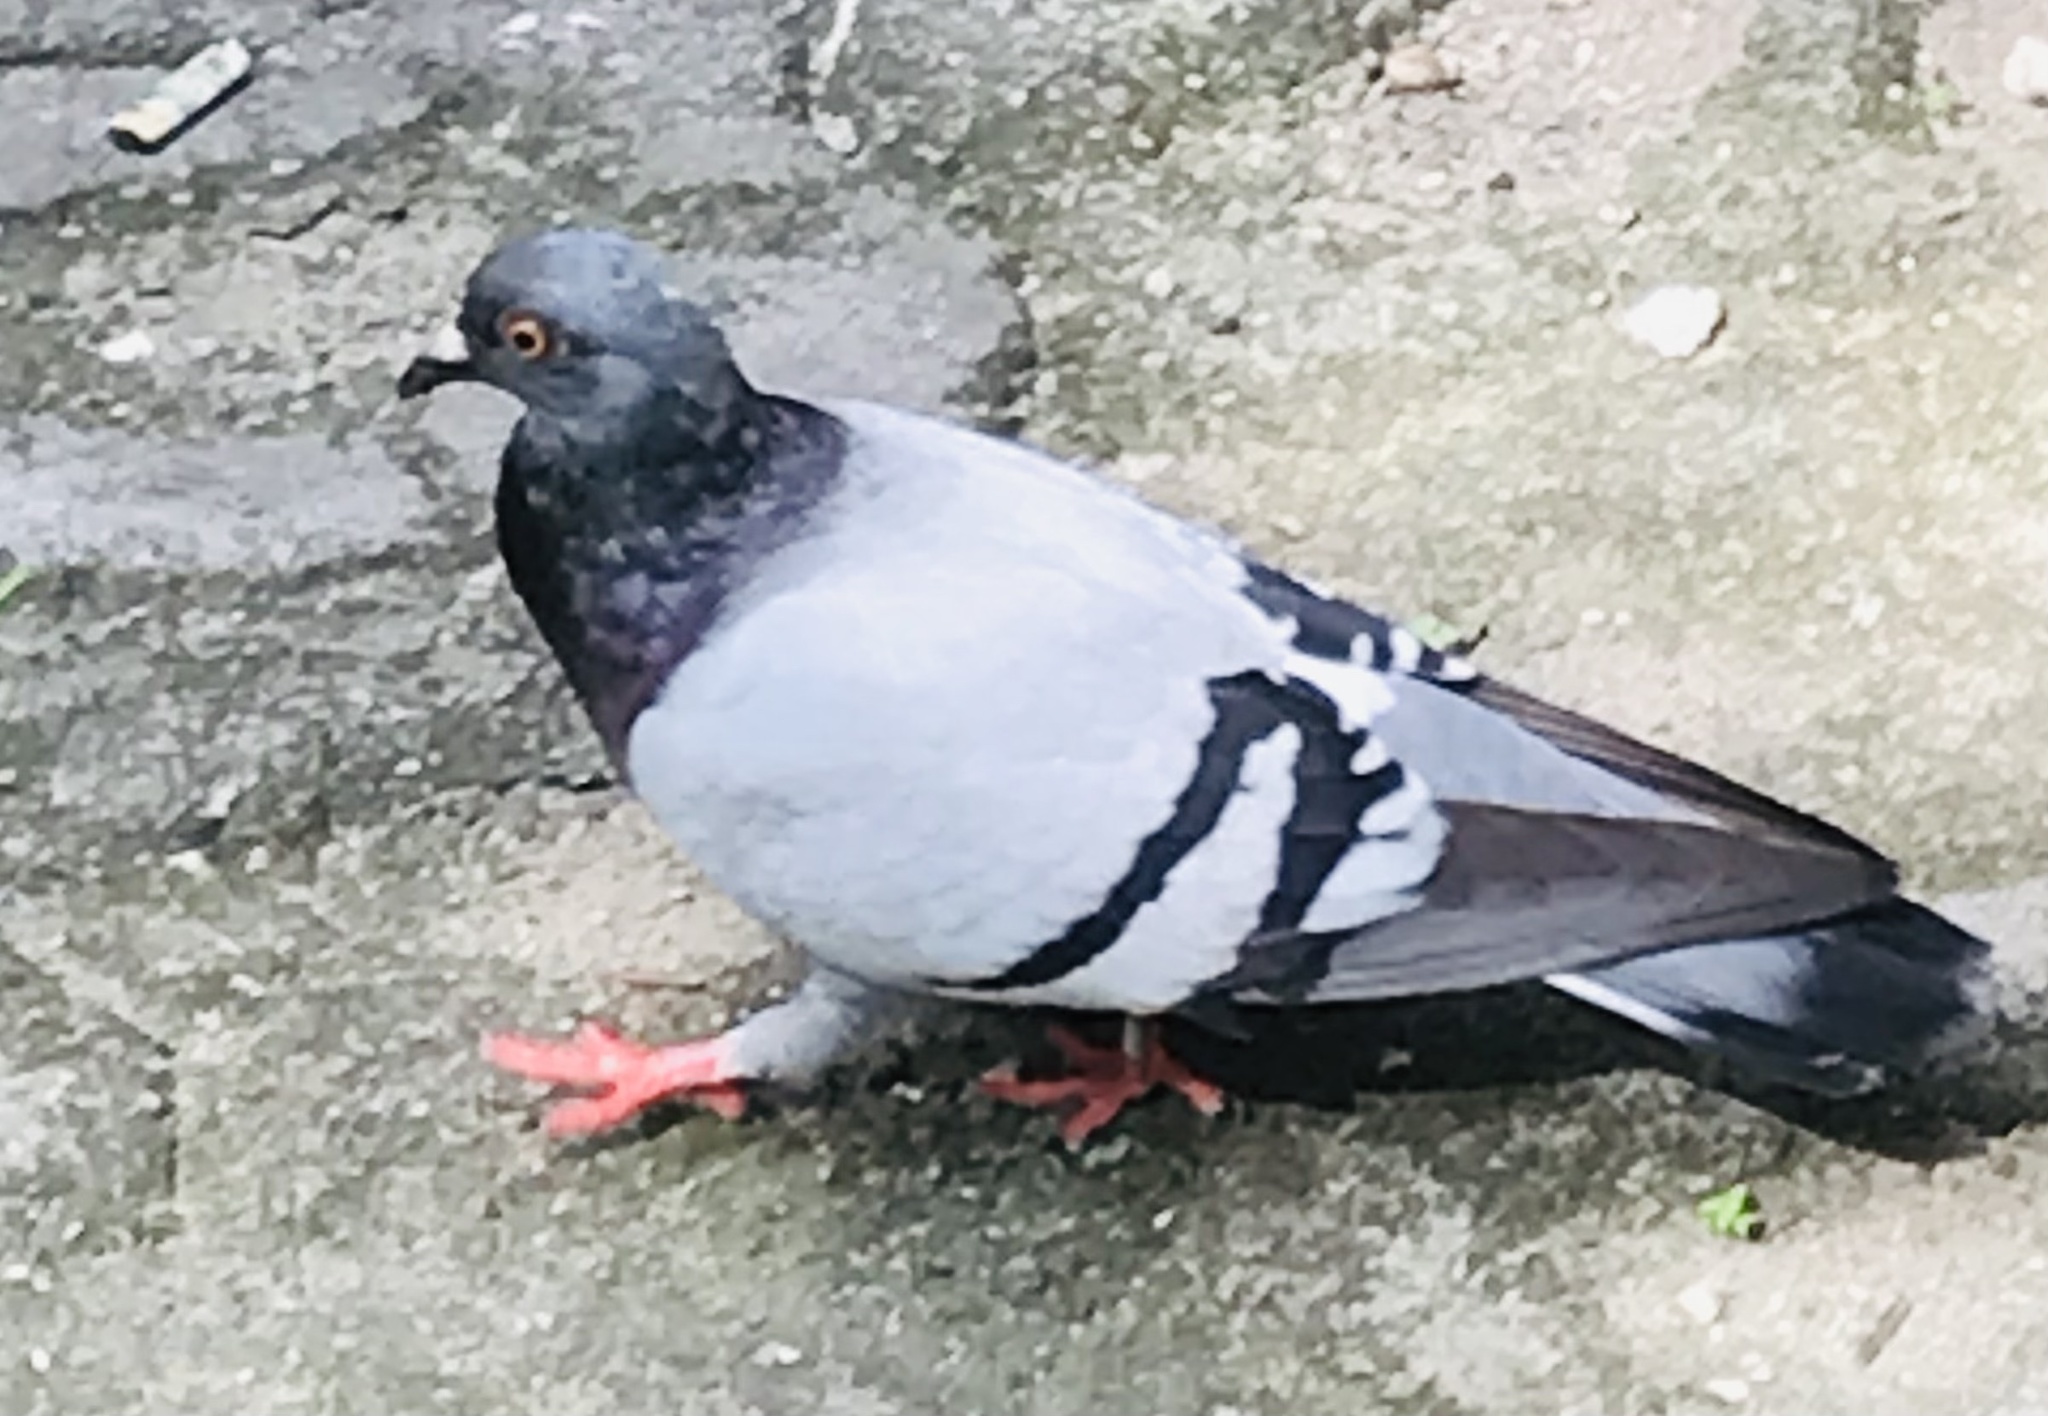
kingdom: Animalia
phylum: Chordata
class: Aves
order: Columbiformes
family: Columbidae
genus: Columba
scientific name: Columba livia
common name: Rock pigeon
